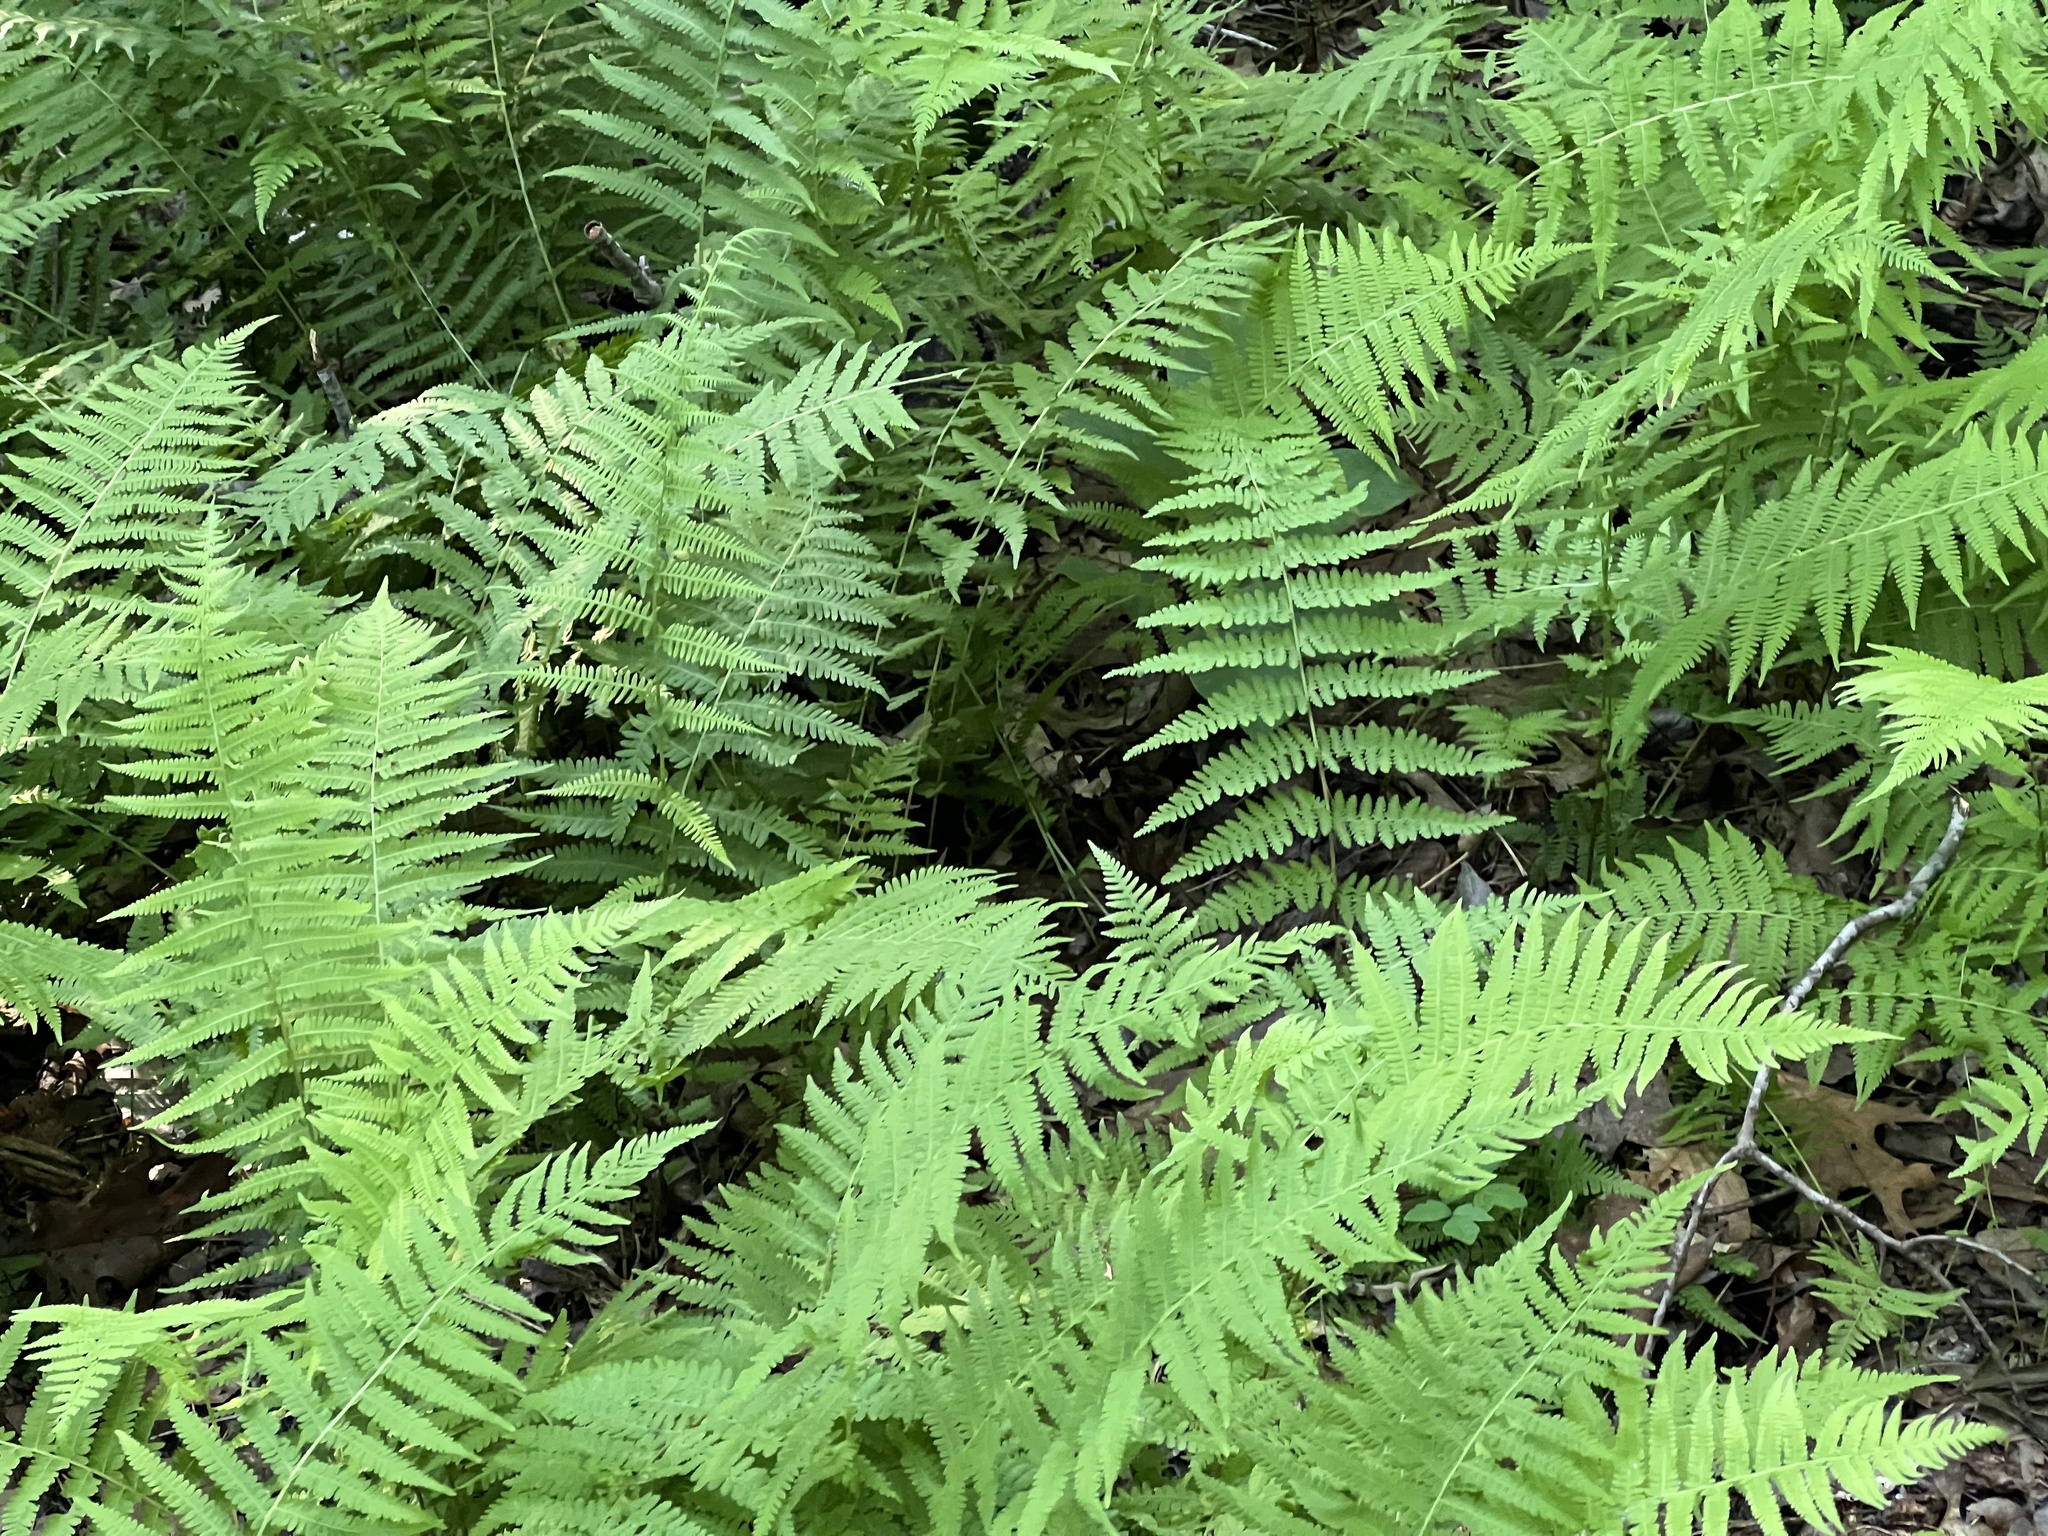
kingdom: Plantae
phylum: Tracheophyta
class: Polypodiopsida
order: Polypodiales
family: Thelypteridaceae
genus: Amauropelta
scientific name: Amauropelta noveboracensis
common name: New york fern
